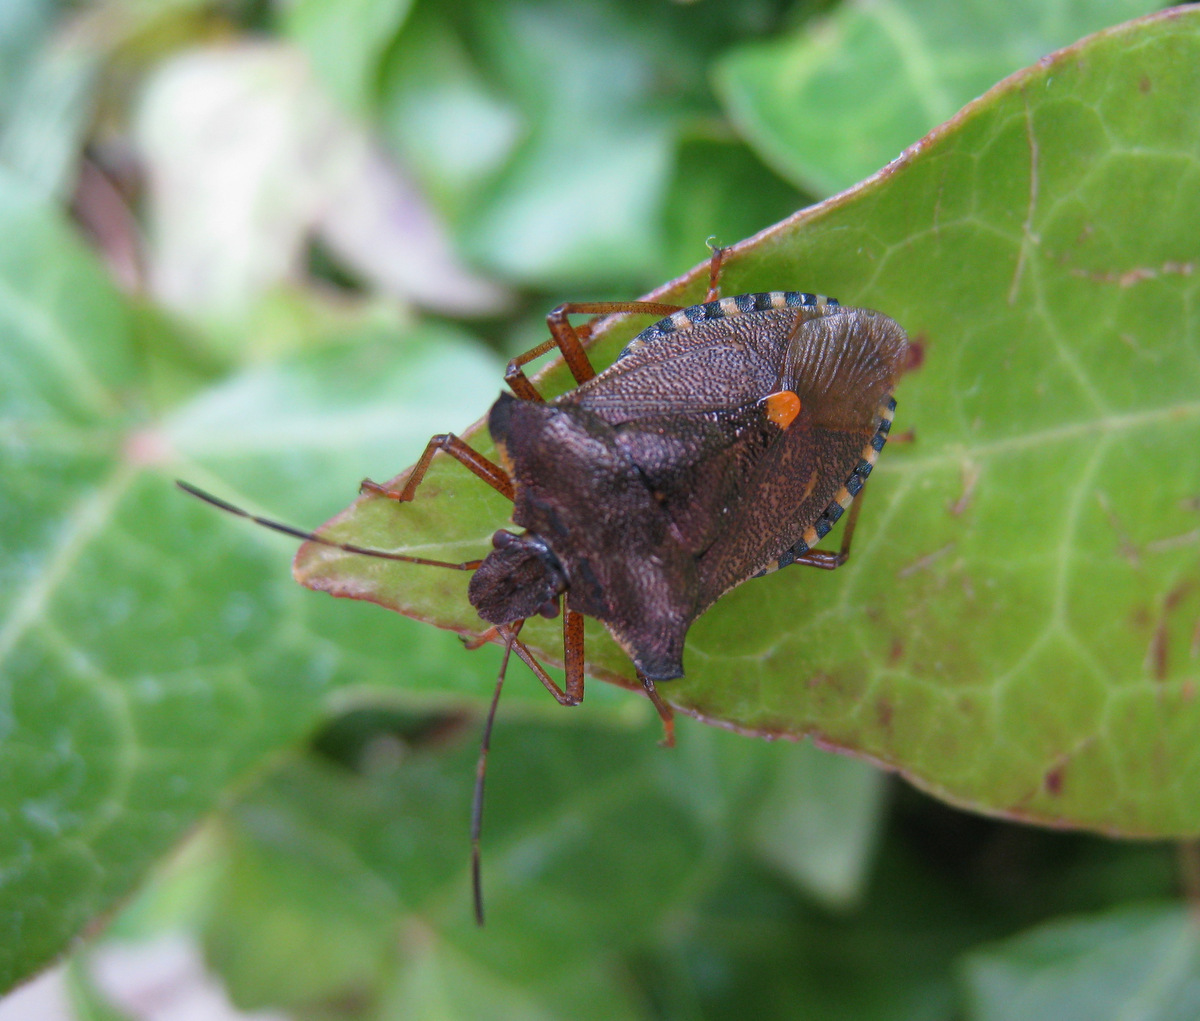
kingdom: Animalia
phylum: Arthropoda
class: Insecta
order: Hemiptera
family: Pentatomidae
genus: Pentatoma
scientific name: Pentatoma rufipes
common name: Forest bug
